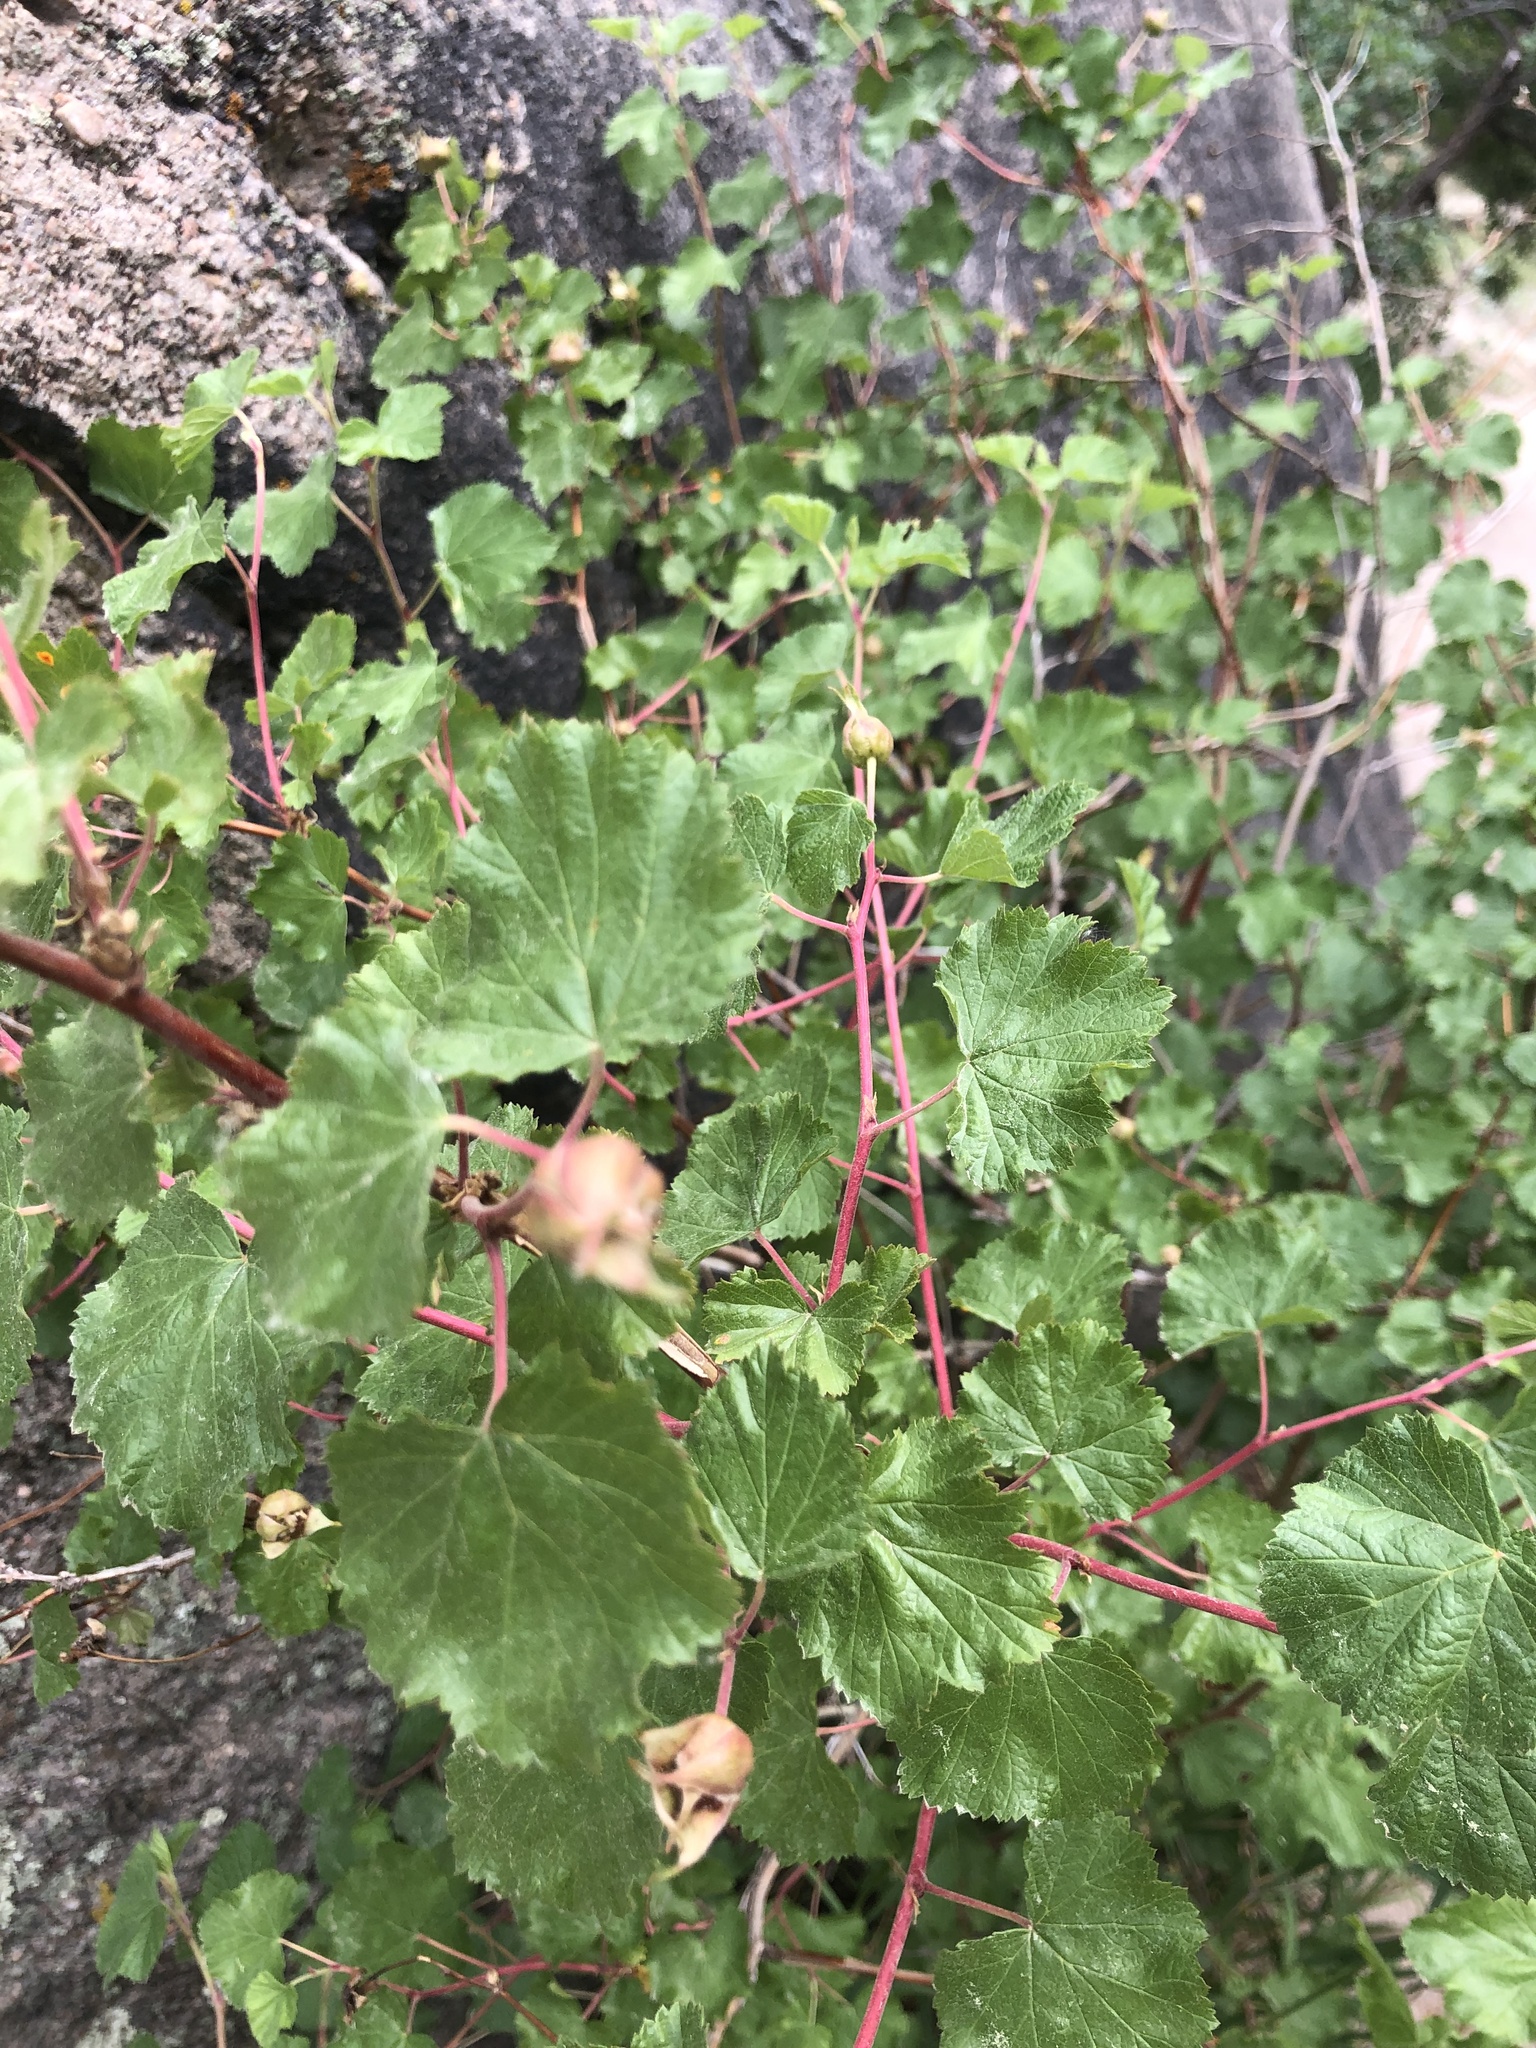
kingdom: Plantae
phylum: Tracheophyta
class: Magnoliopsida
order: Rosales
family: Rosaceae
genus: Rubus
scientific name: Rubus deliciosus
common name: Rocky mountain raspberry
